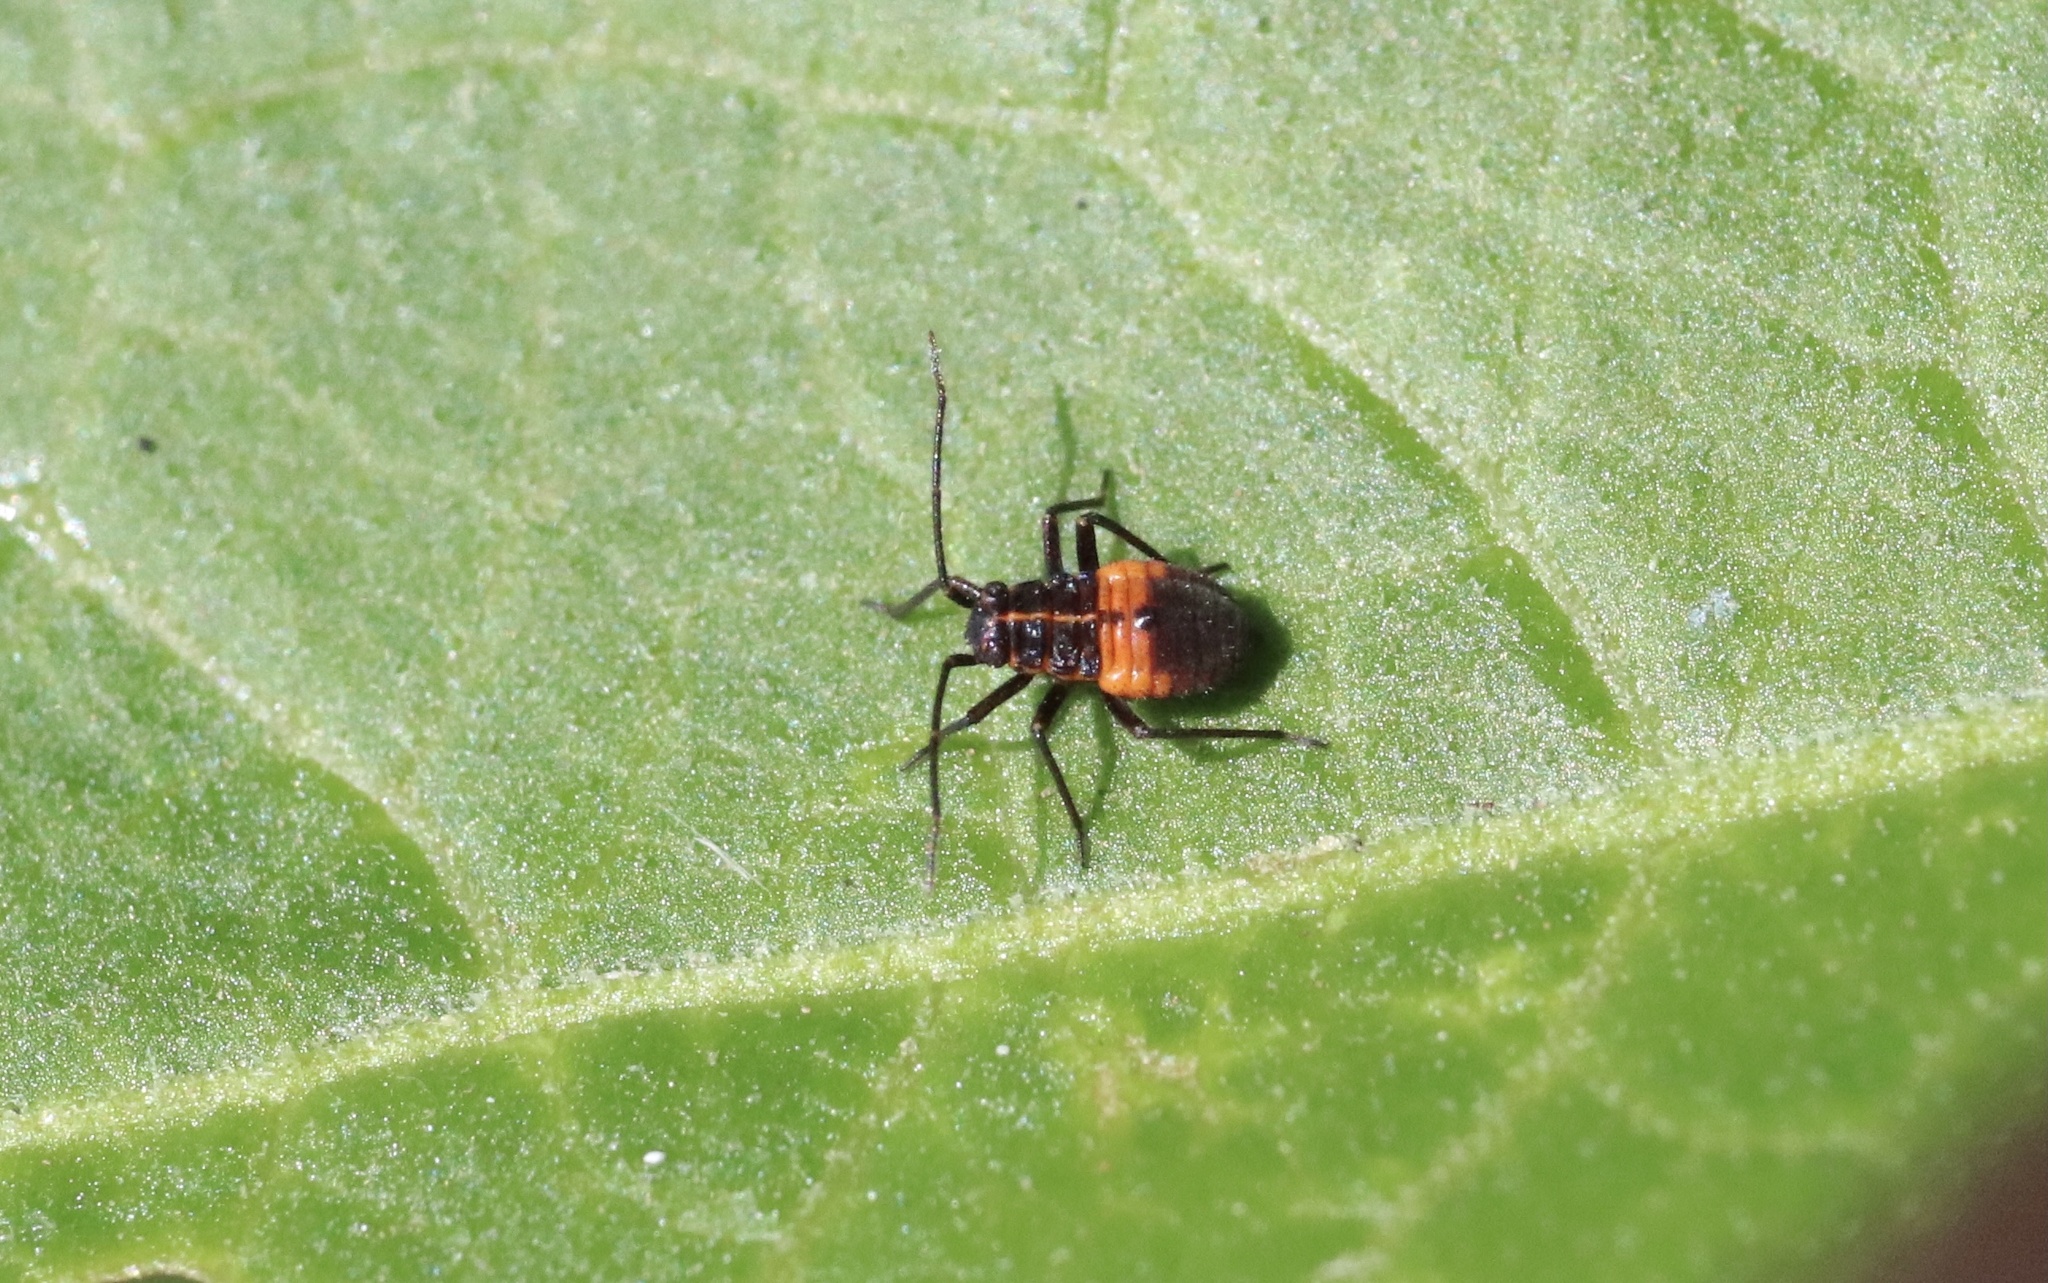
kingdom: Animalia
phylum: Arthropoda
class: Insecta
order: Hemiptera
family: Miridae
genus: Eurylomata
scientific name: Eurylomata picturata
